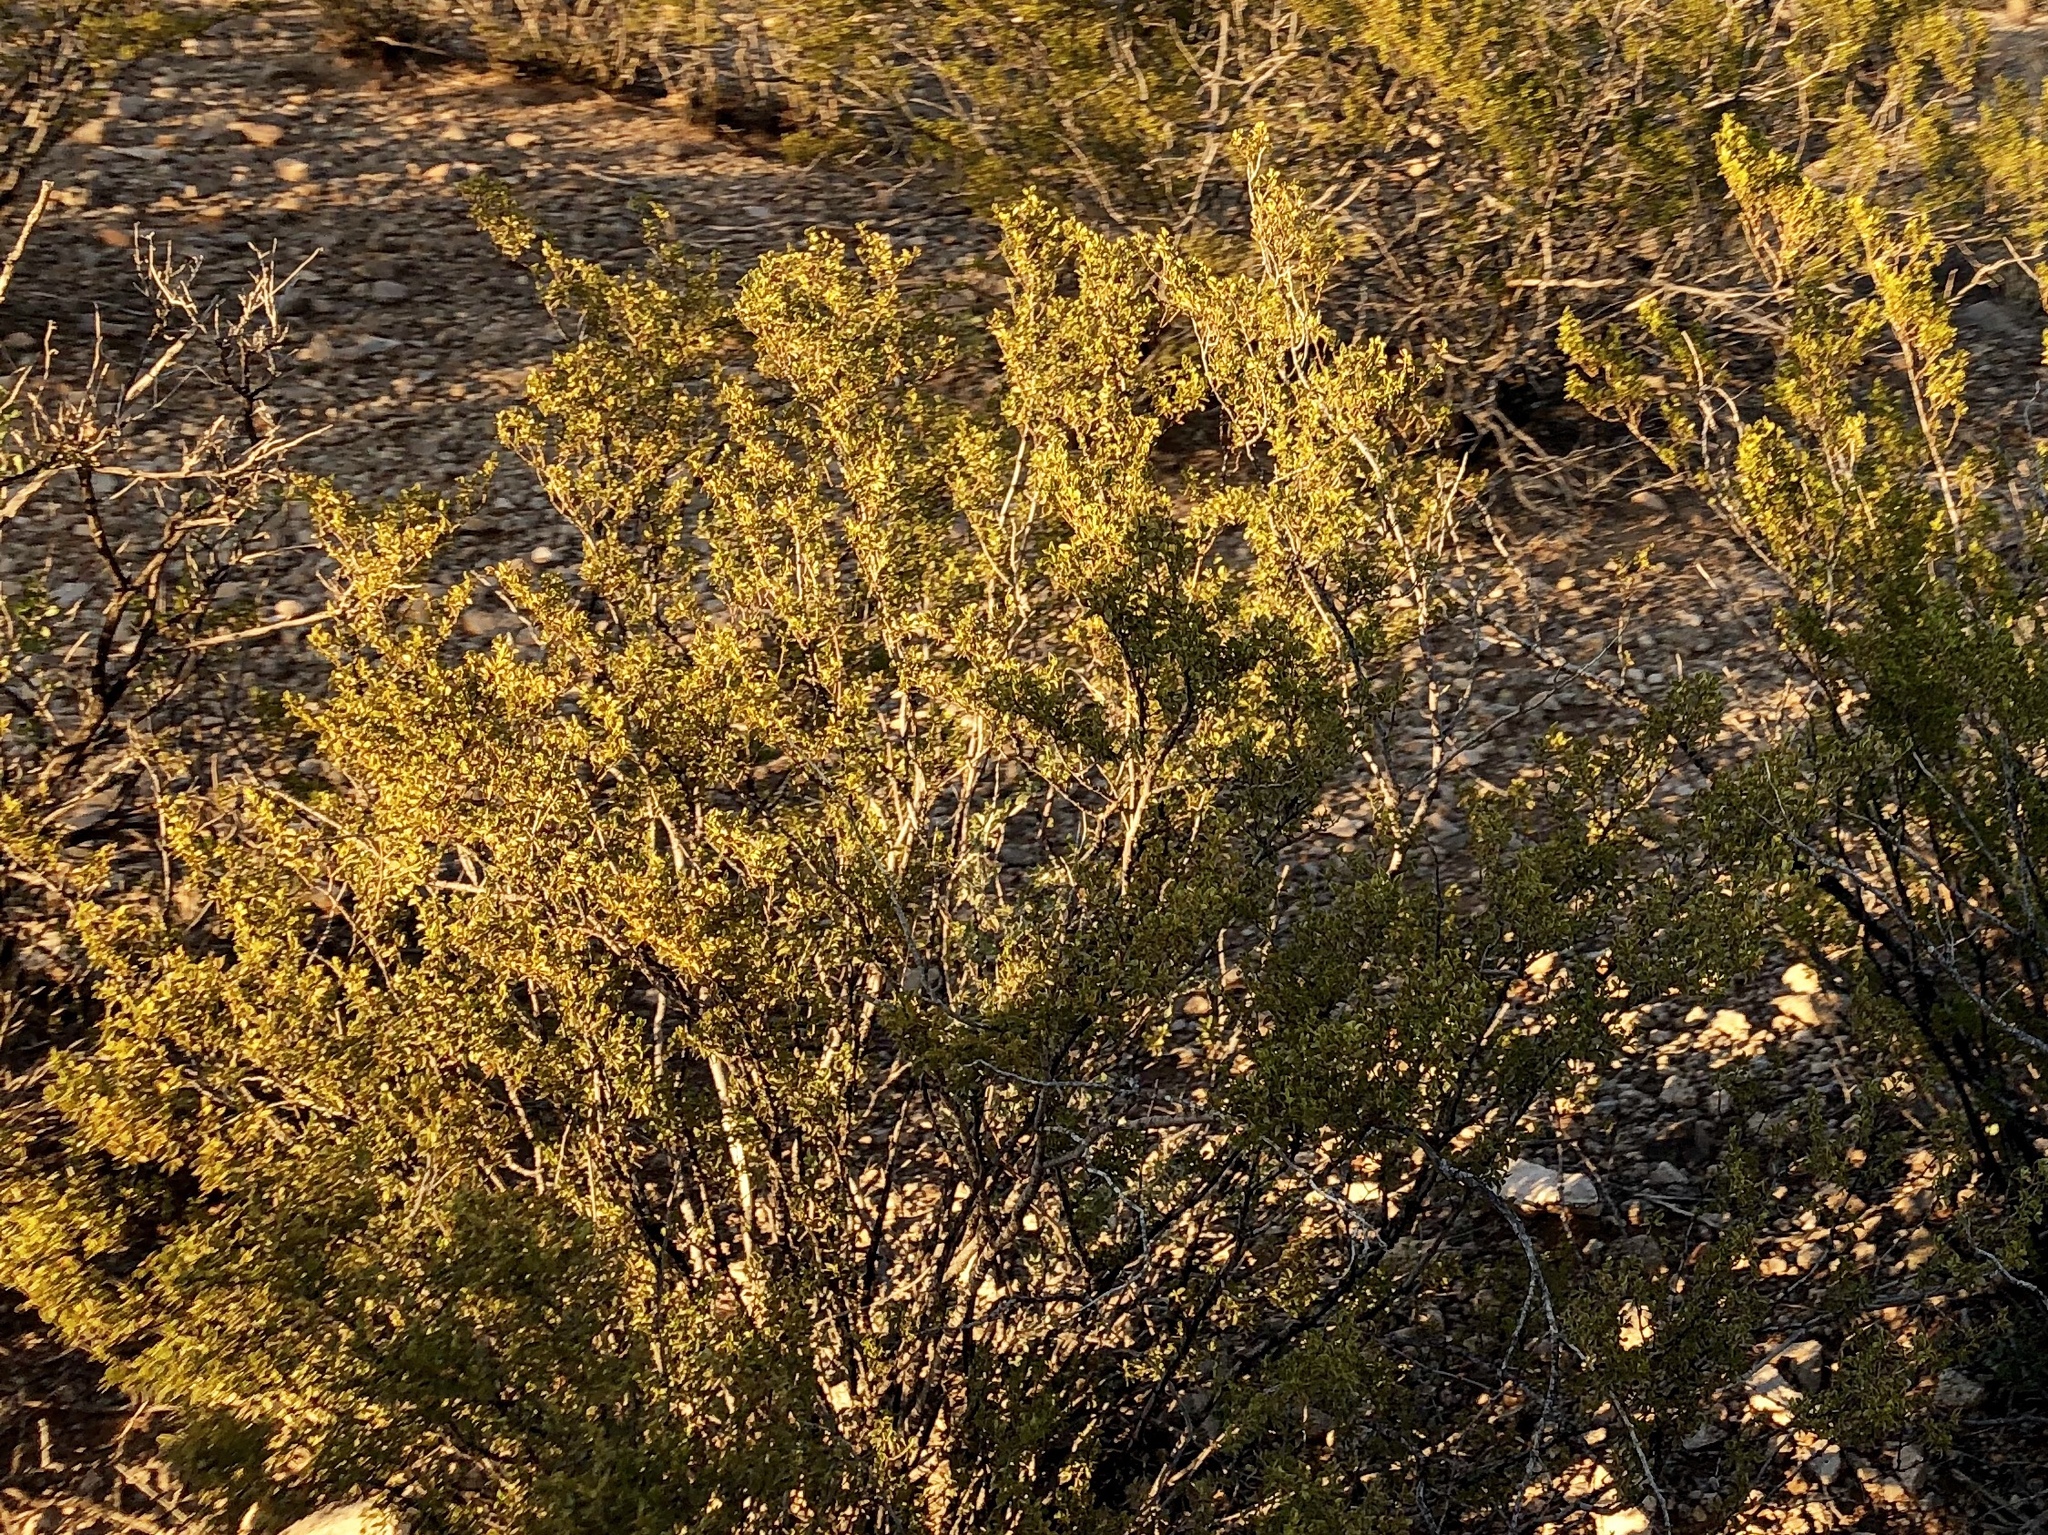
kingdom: Plantae
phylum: Tracheophyta
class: Magnoliopsida
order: Zygophyllales
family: Zygophyllaceae
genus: Larrea
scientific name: Larrea tridentata
